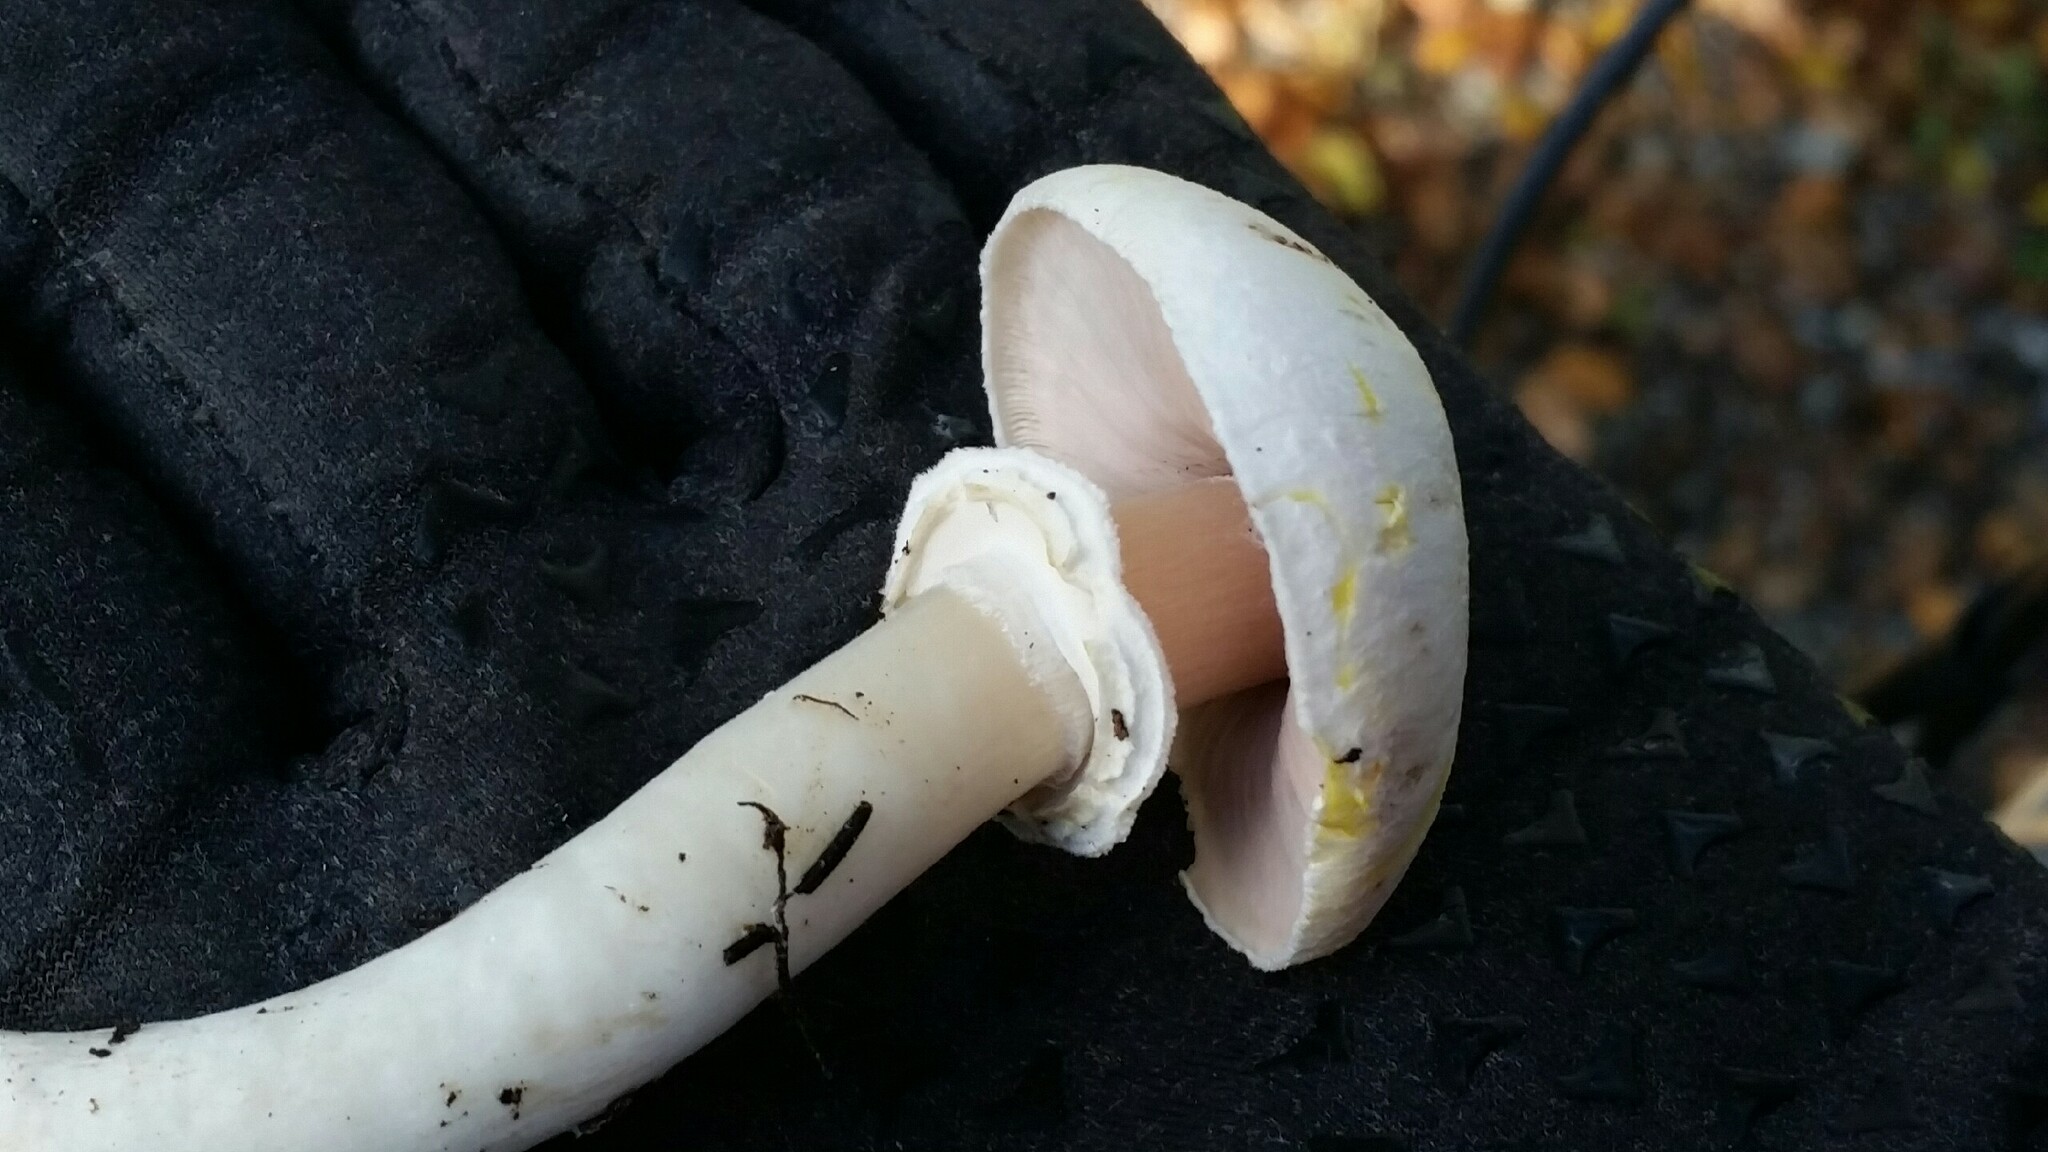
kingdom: Fungi
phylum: Basidiomycota
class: Agaricomycetes
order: Agaricales
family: Agaricaceae
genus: Agaricus
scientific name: Agaricus xanthodermus
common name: Yellow stainer
